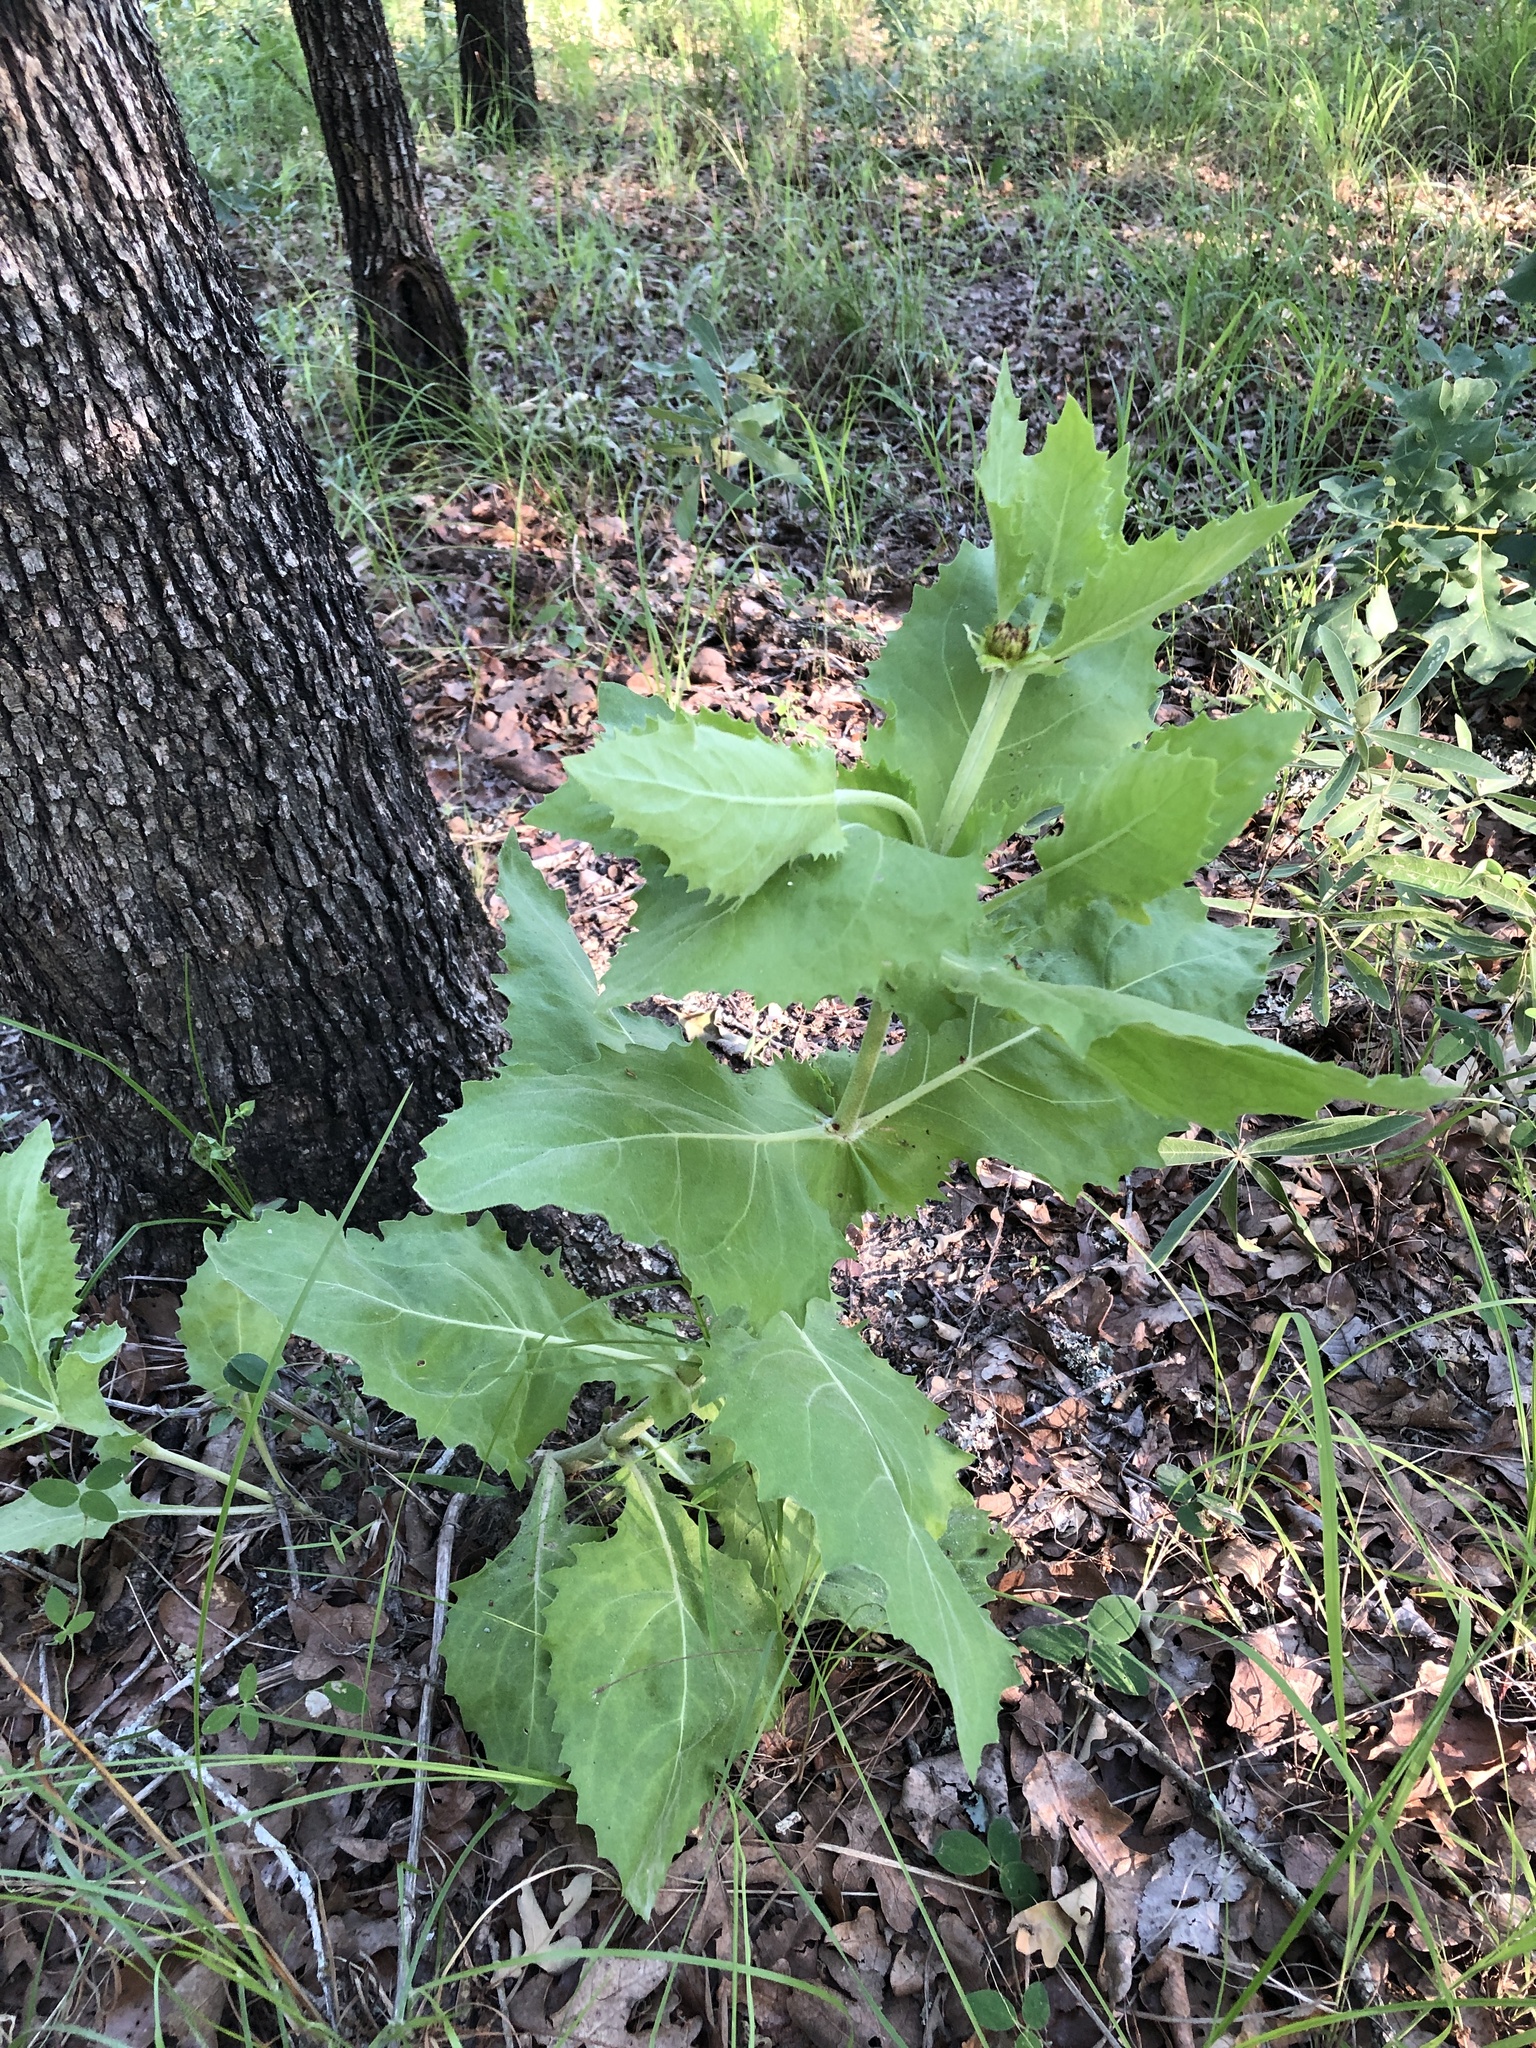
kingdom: Plantae
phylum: Tracheophyta
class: Magnoliopsida
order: Asterales
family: Asteraceae
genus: Tetragonotheca
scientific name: Tetragonotheca ludoviciana
